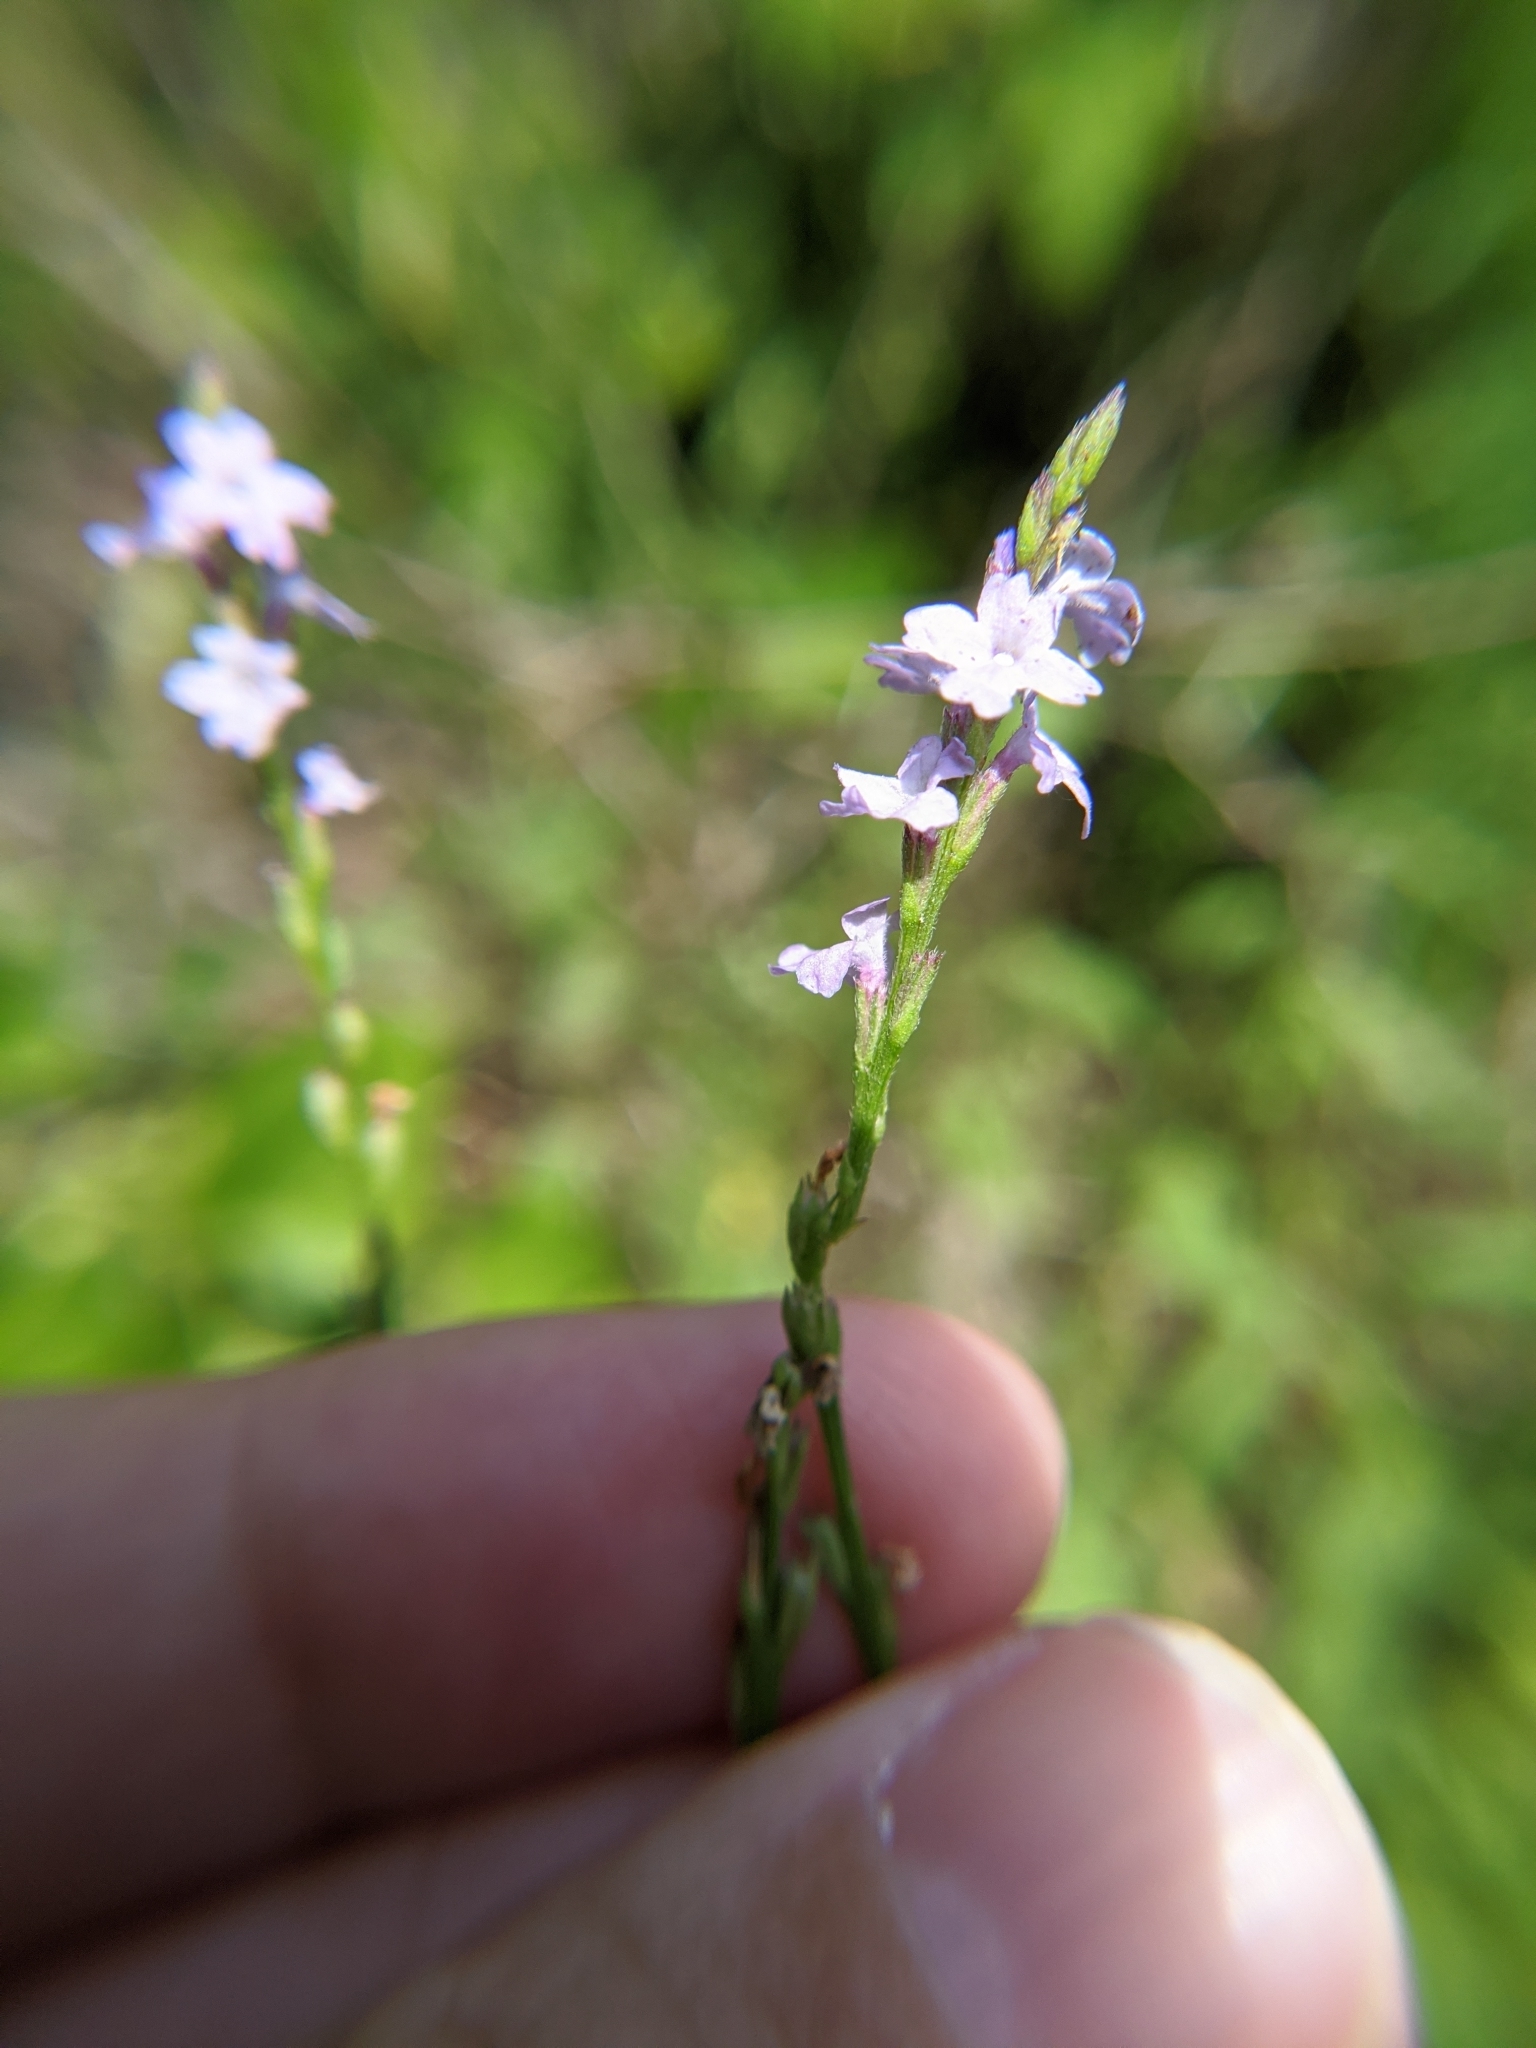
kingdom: Plantae
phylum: Tracheophyta
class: Magnoliopsida
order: Lamiales
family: Verbenaceae
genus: Verbena
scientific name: Verbena halei
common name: Texas vervain
